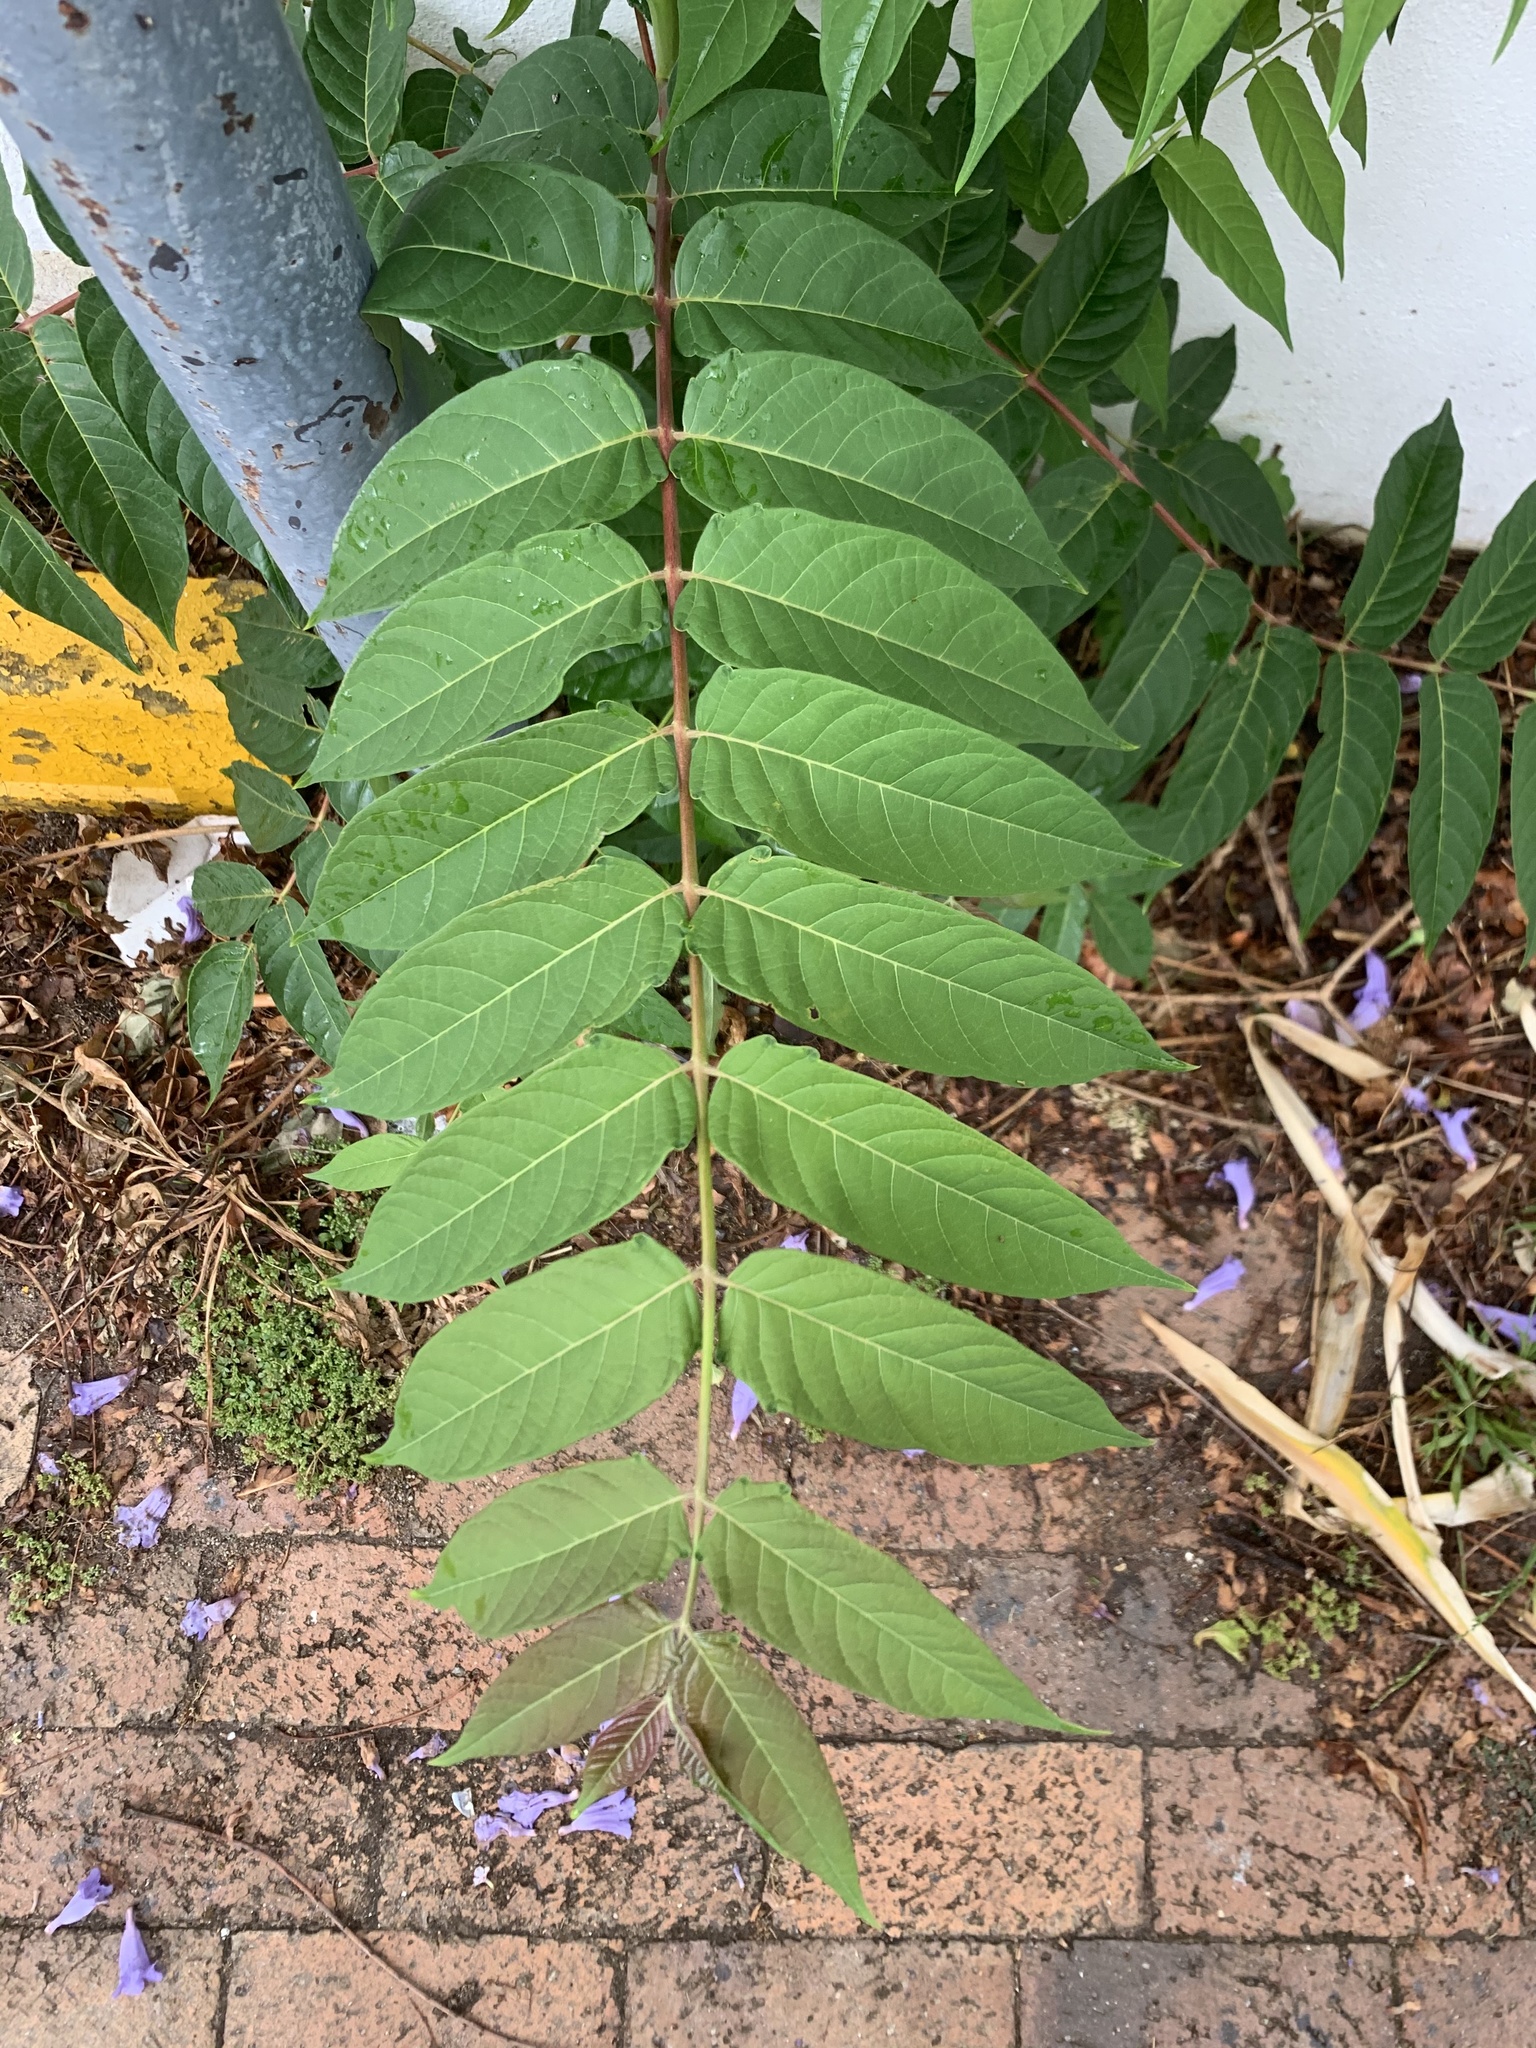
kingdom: Plantae
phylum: Tracheophyta
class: Magnoliopsida
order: Sapindales
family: Simaroubaceae
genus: Ailanthus
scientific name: Ailanthus altissima
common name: Tree-of-heaven
